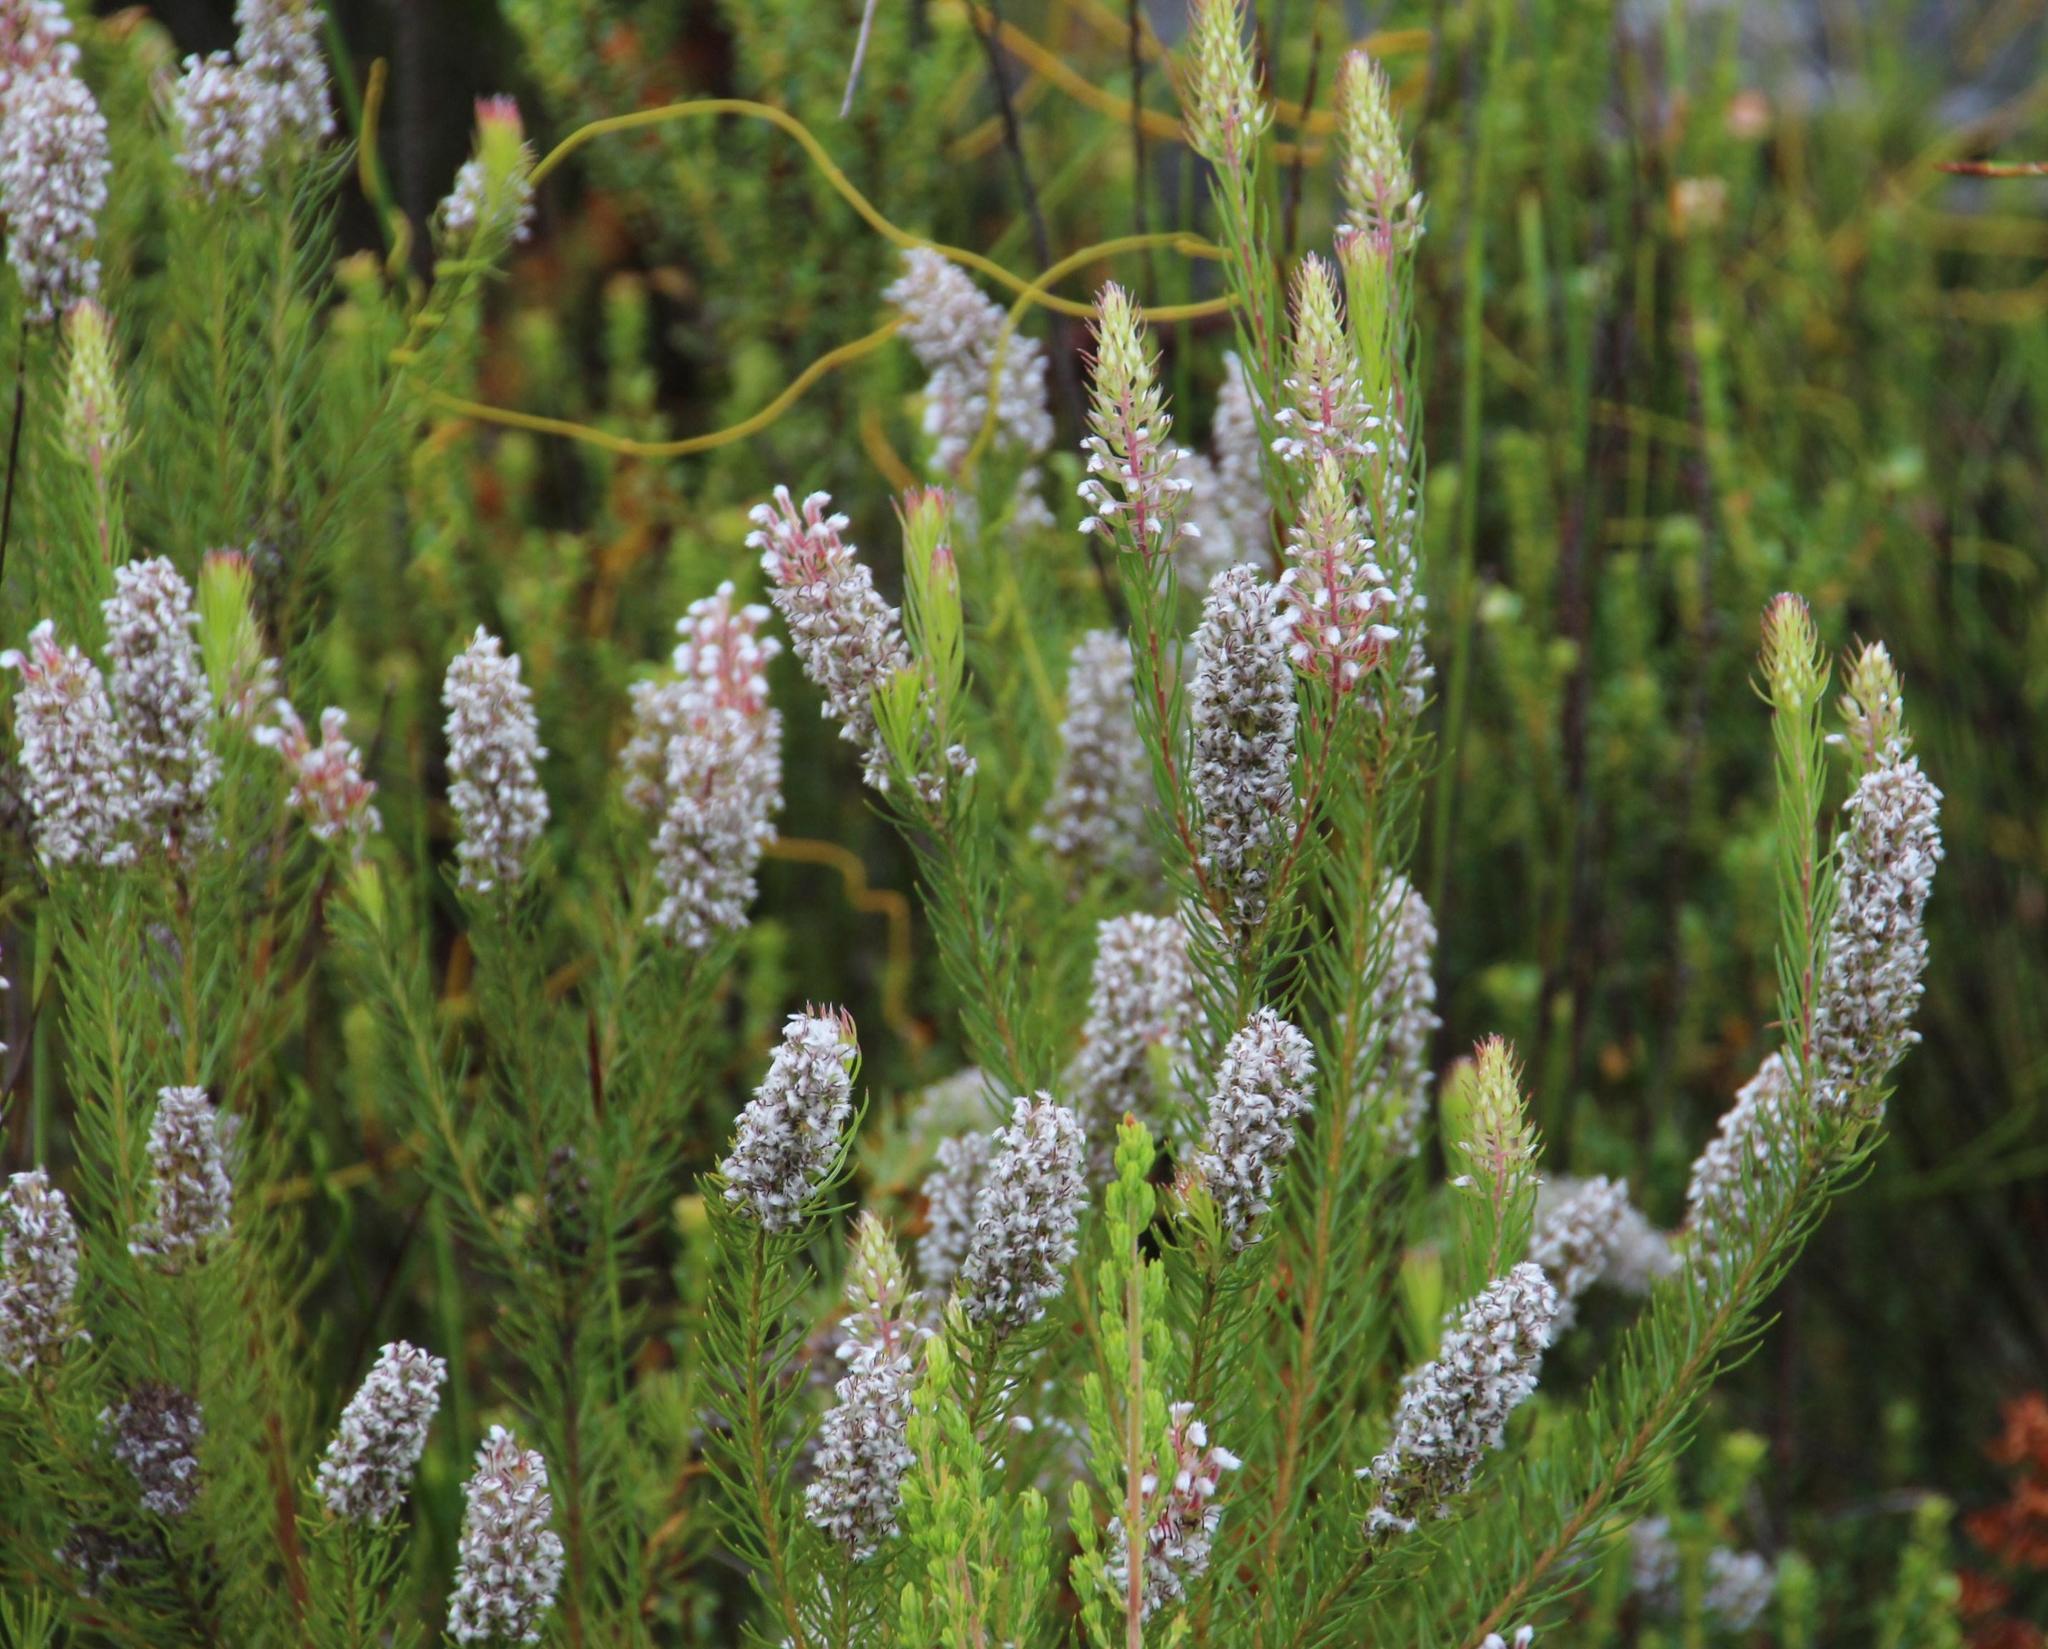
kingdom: Plantae
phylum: Tracheophyta
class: Magnoliopsida
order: Proteales
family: Proteaceae
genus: Spatalla
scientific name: Spatalla parilis
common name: Spike spoon
